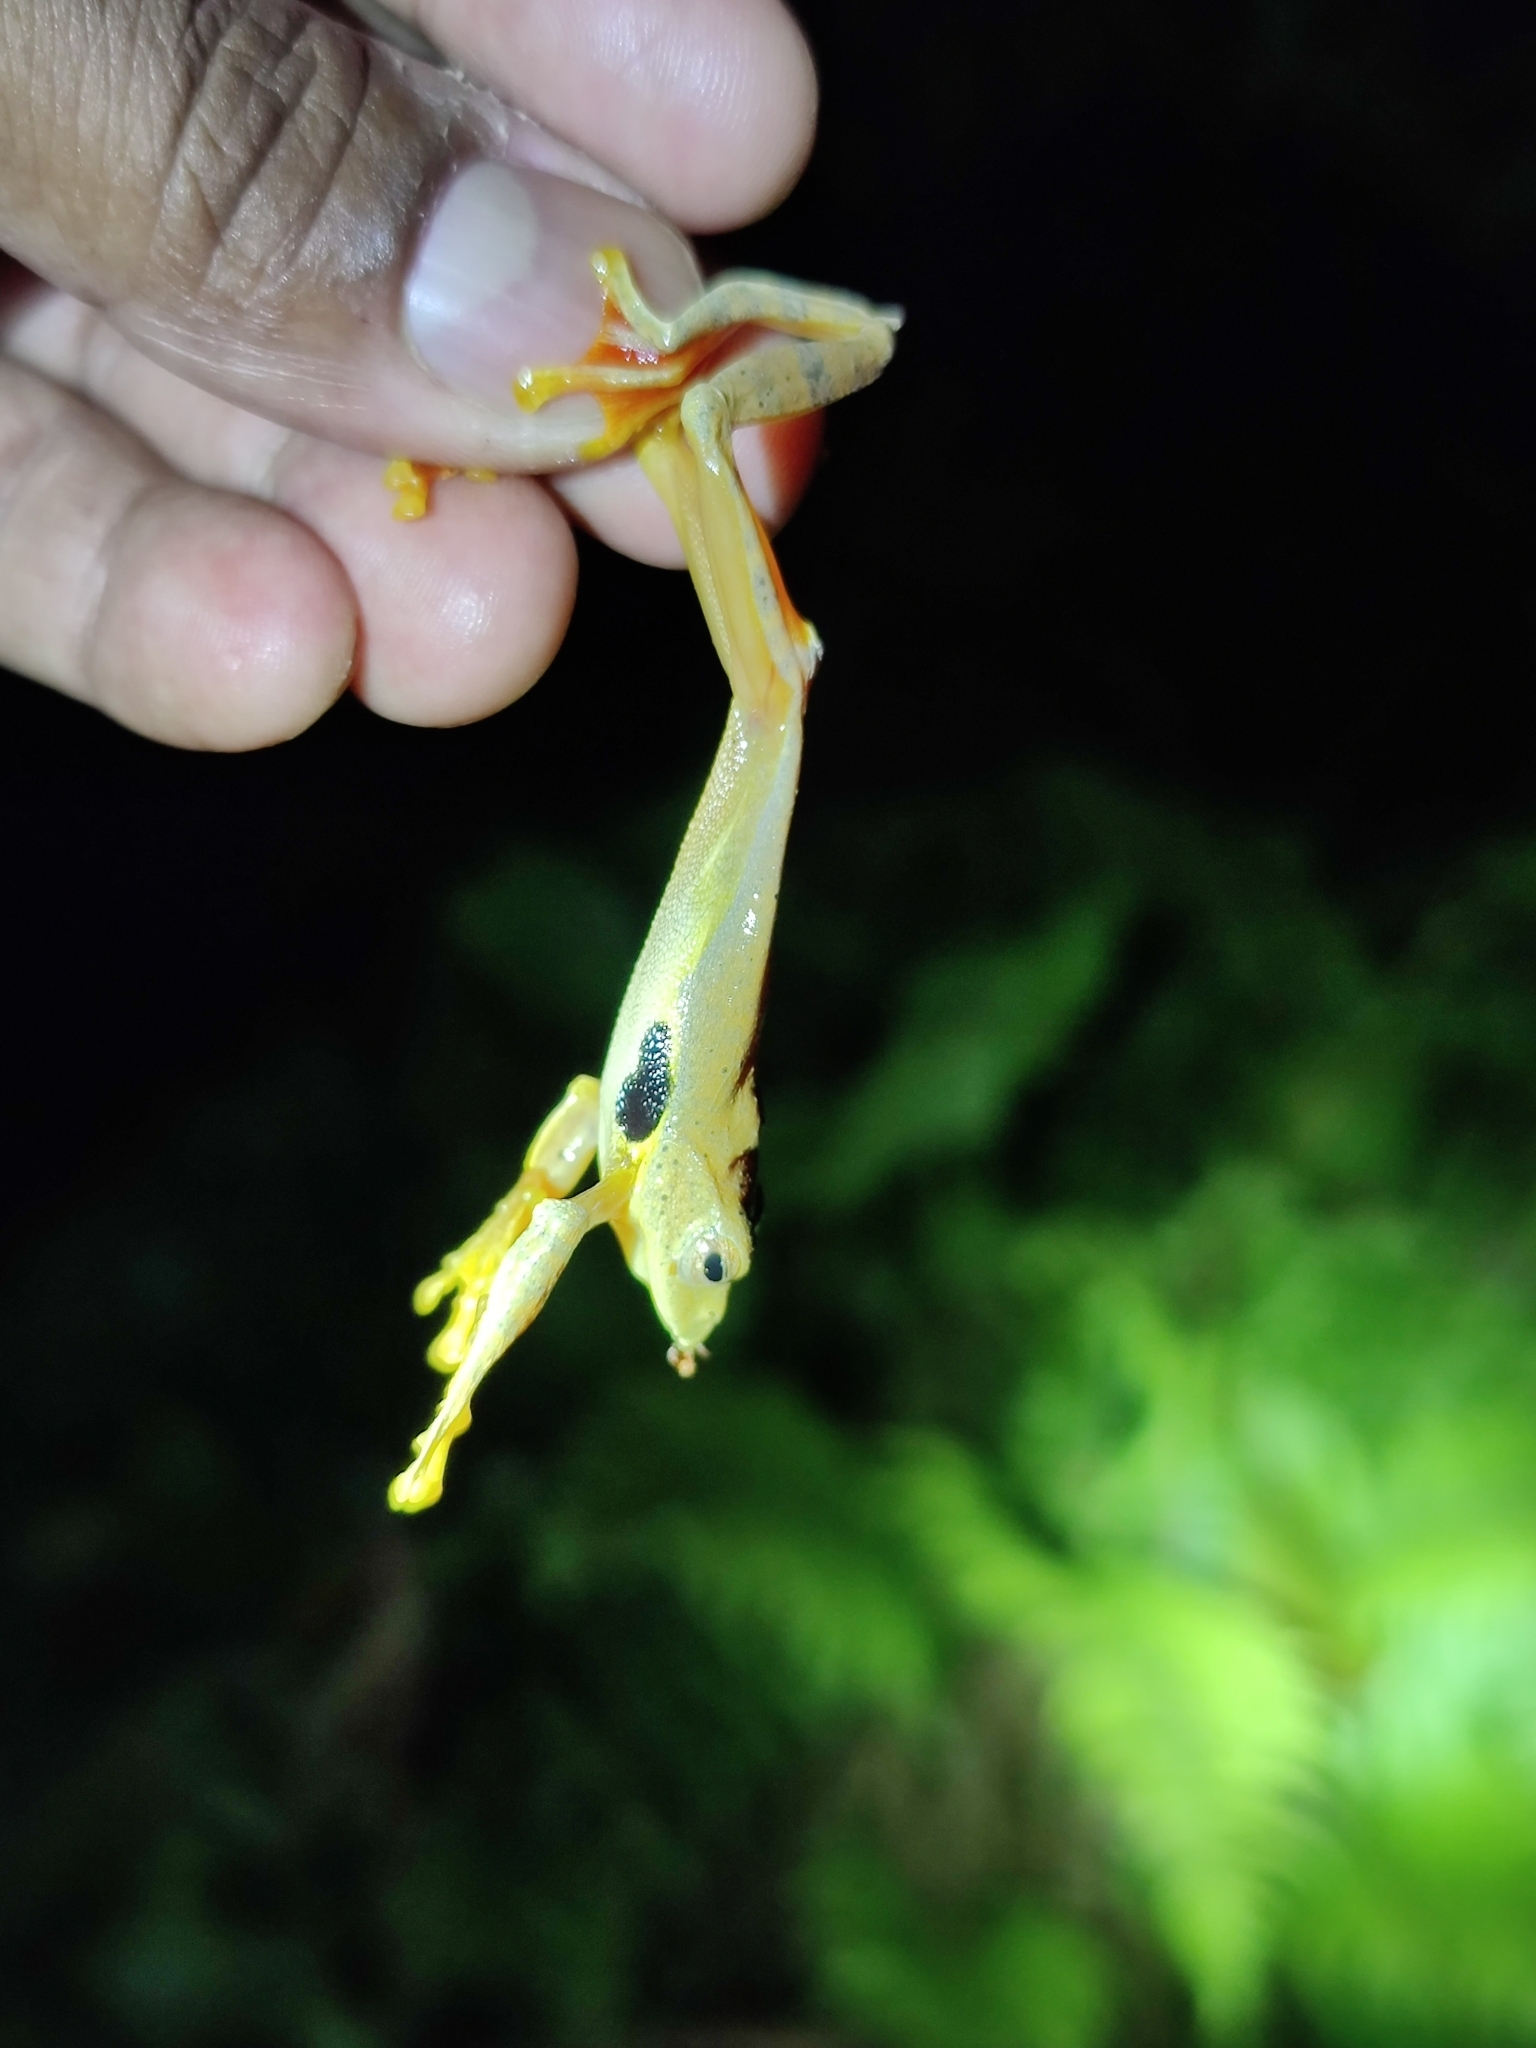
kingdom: Animalia
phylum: Chordata
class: Amphibia
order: Anura
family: Rhacophoridae
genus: Rhacophorus
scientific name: Rhacophorus subansiriensis
